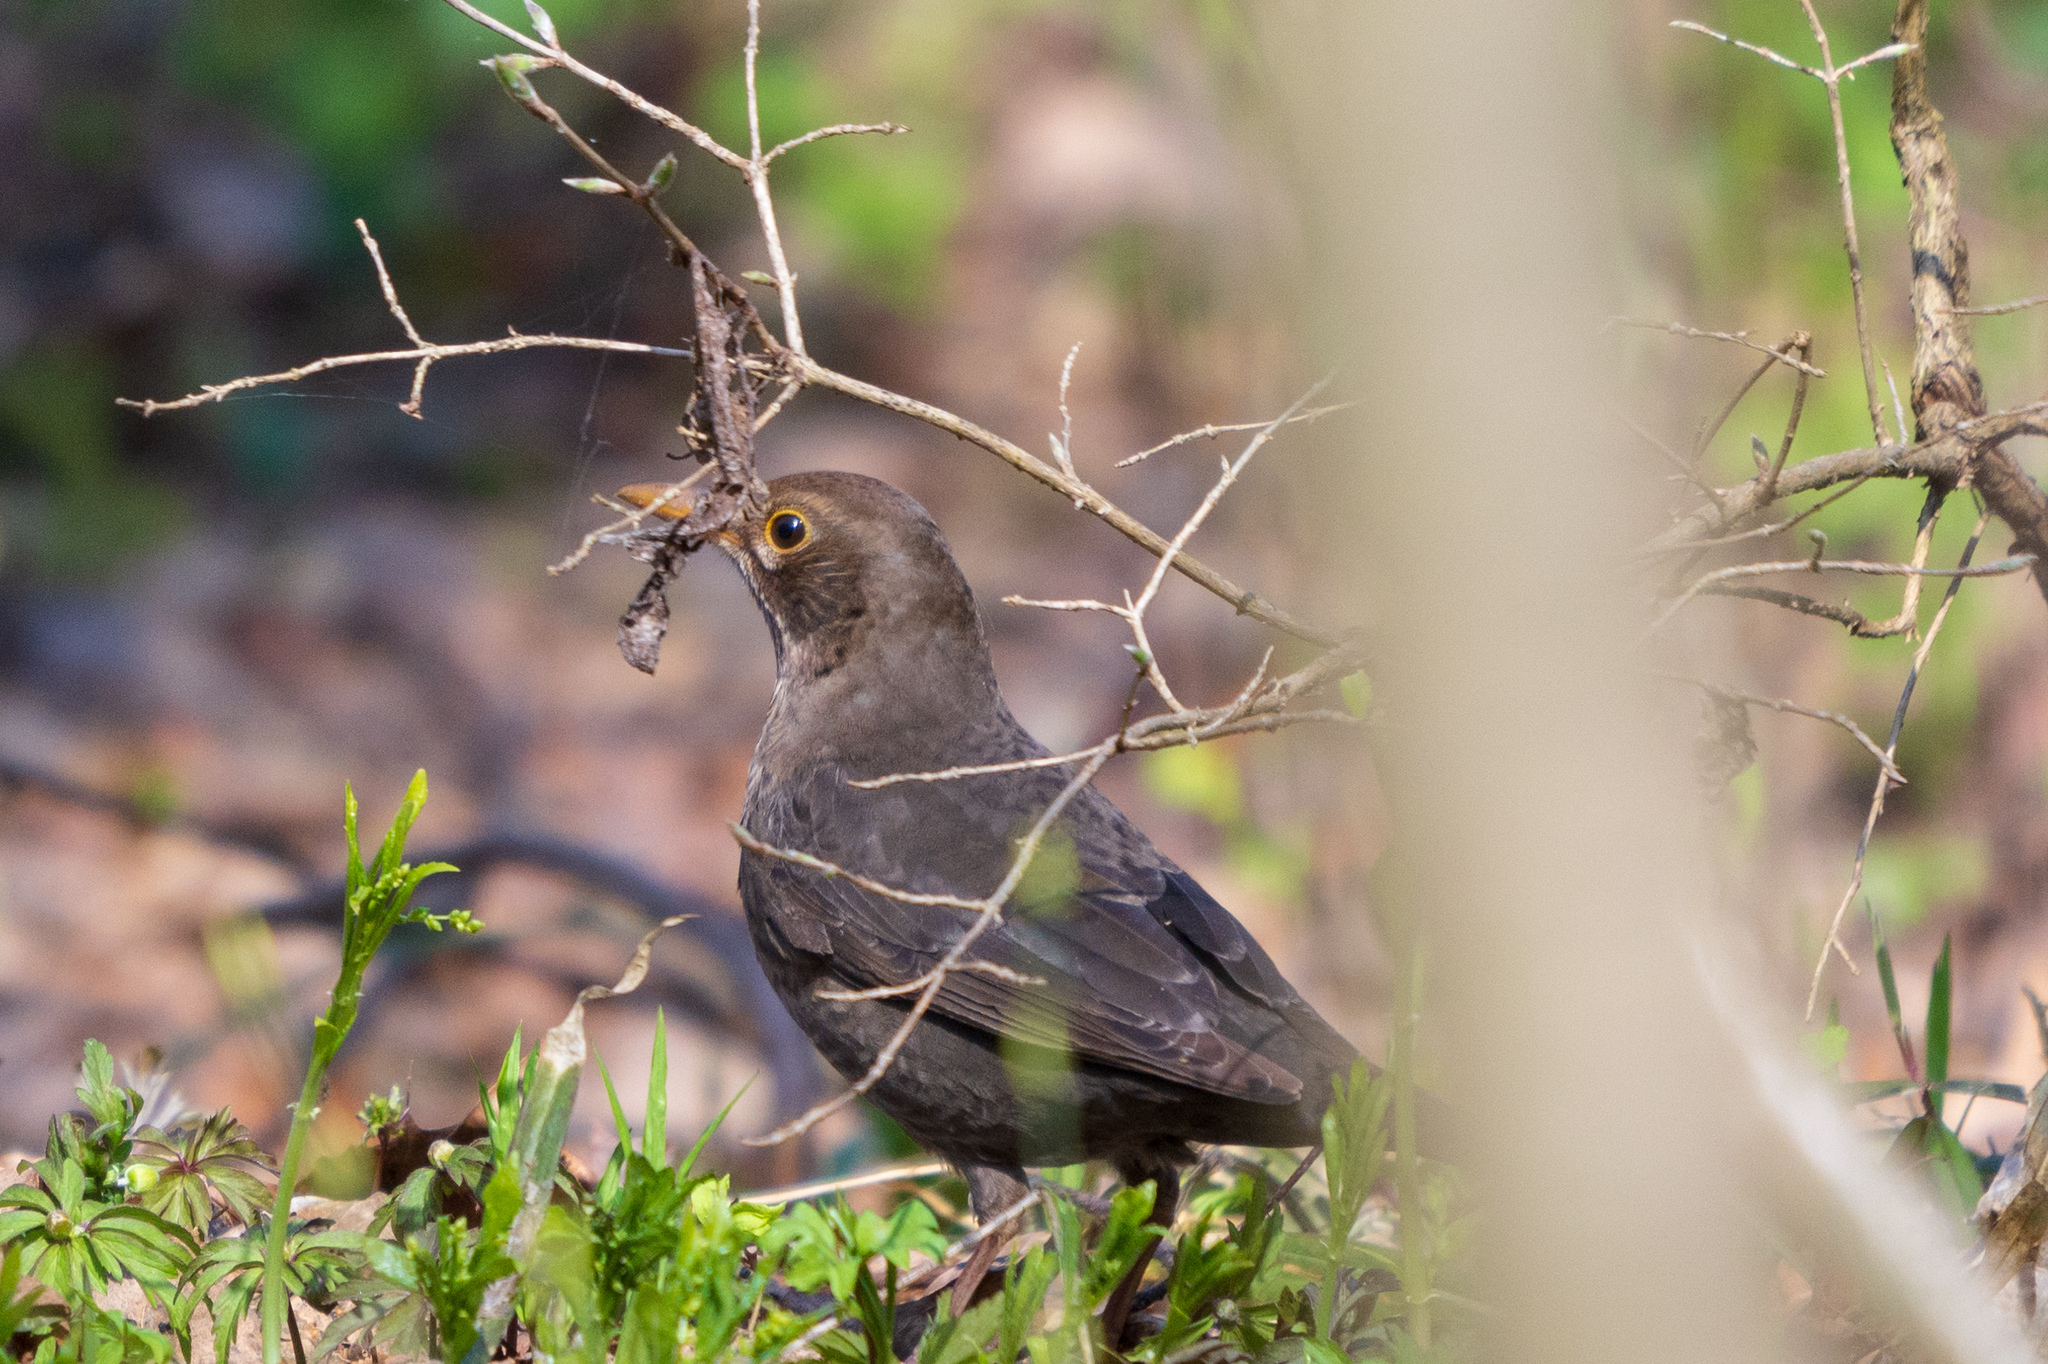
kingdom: Animalia
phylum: Chordata
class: Aves
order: Passeriformes
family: Turdidae
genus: Turdus
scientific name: Turdus merula
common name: Common blackbird
